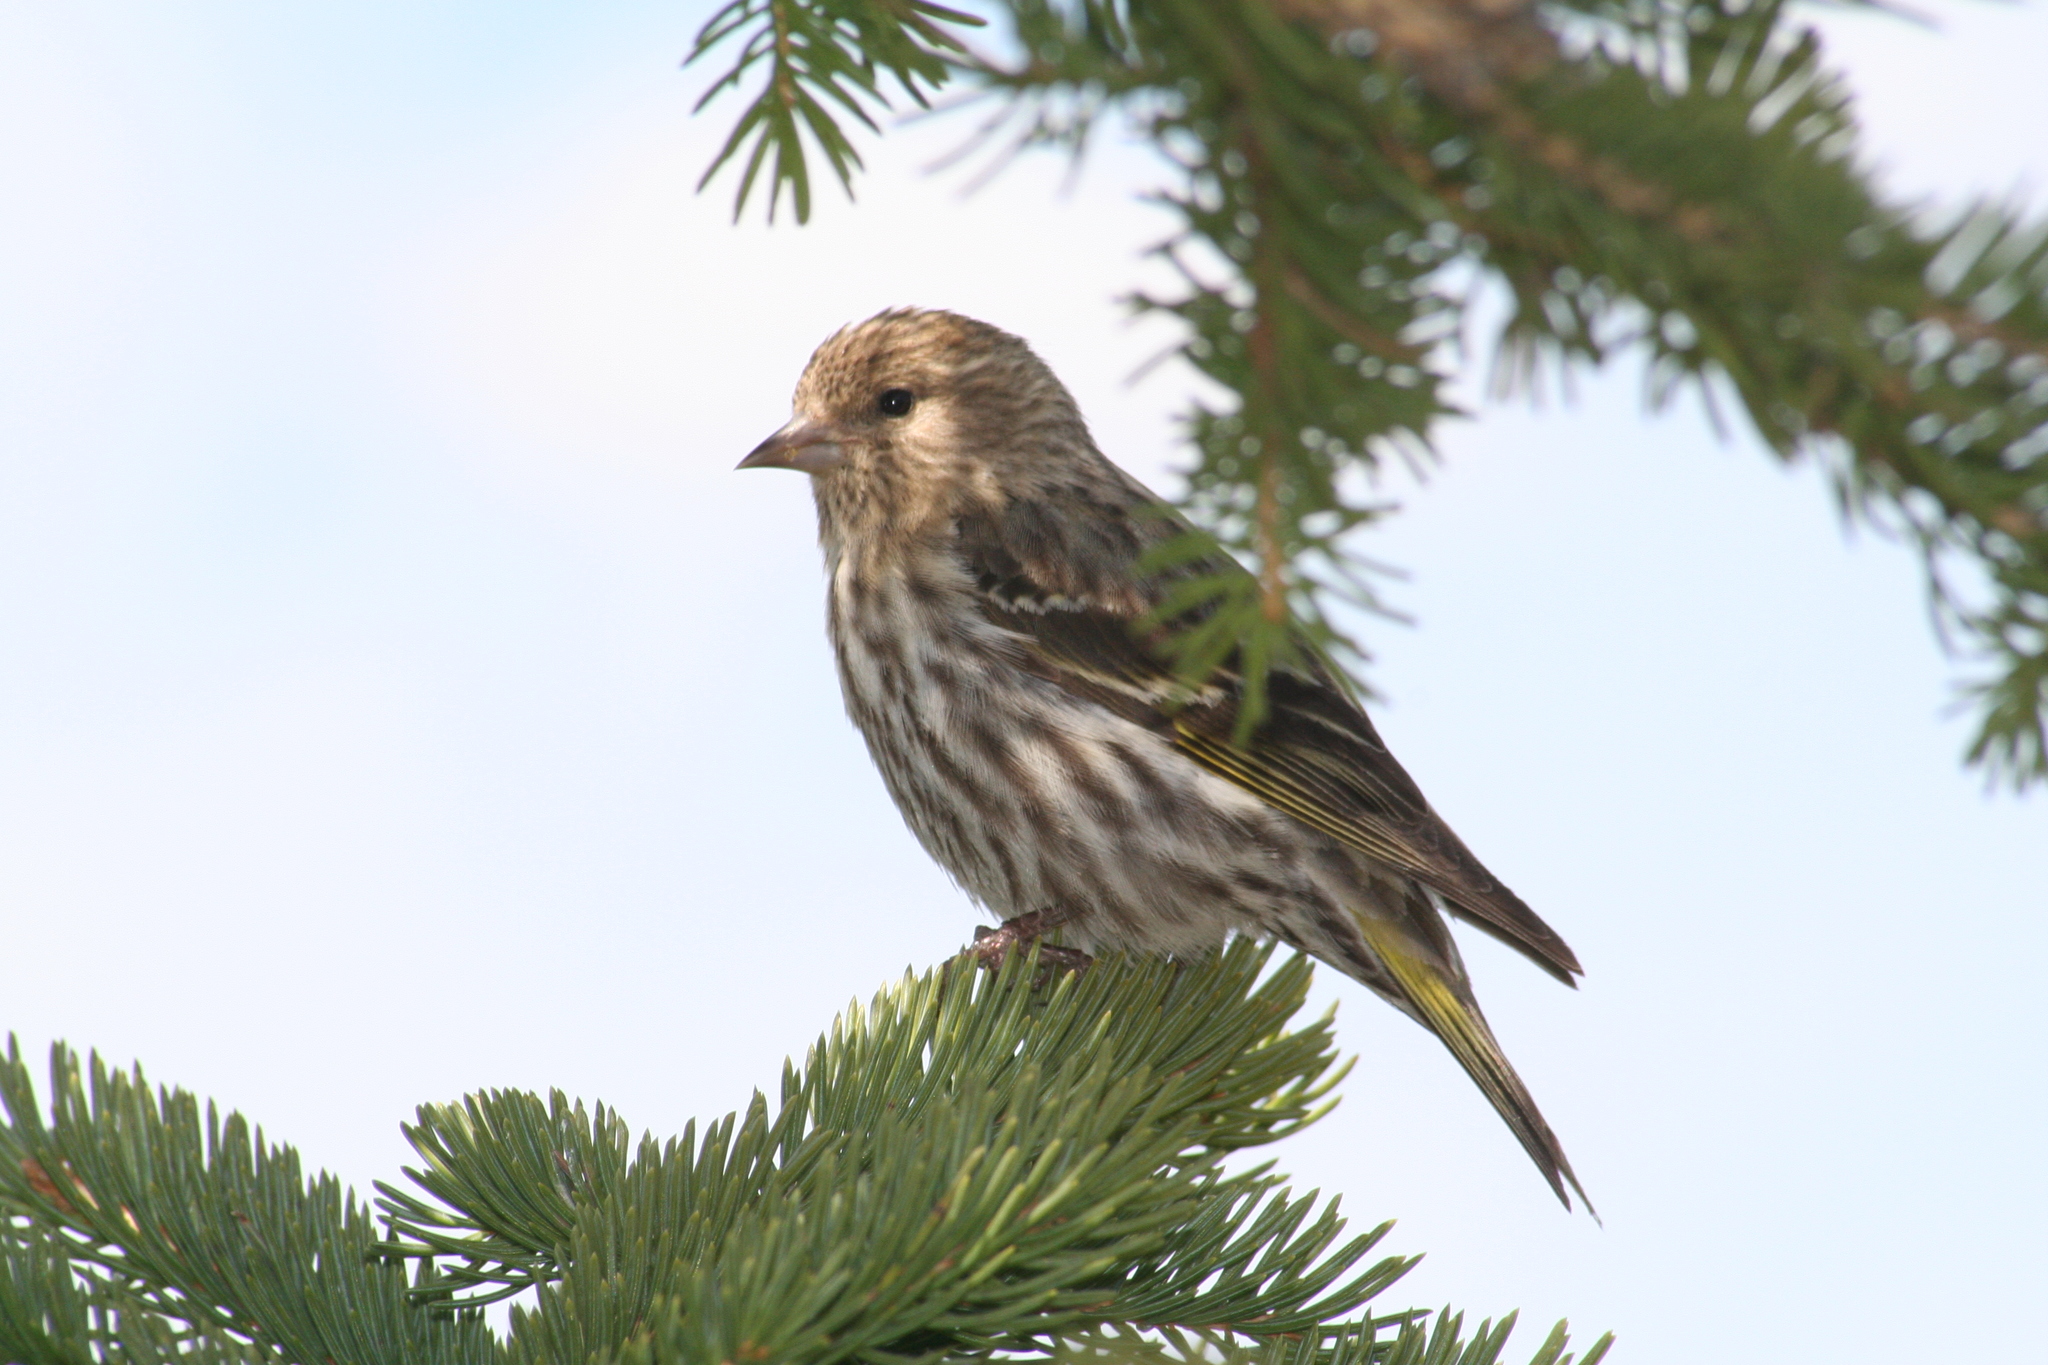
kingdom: Animalia
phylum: Chordata
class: Aves
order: Passeriformes
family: Fringillidae
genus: Spinus
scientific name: Spinus pinus
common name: Pine siskin
